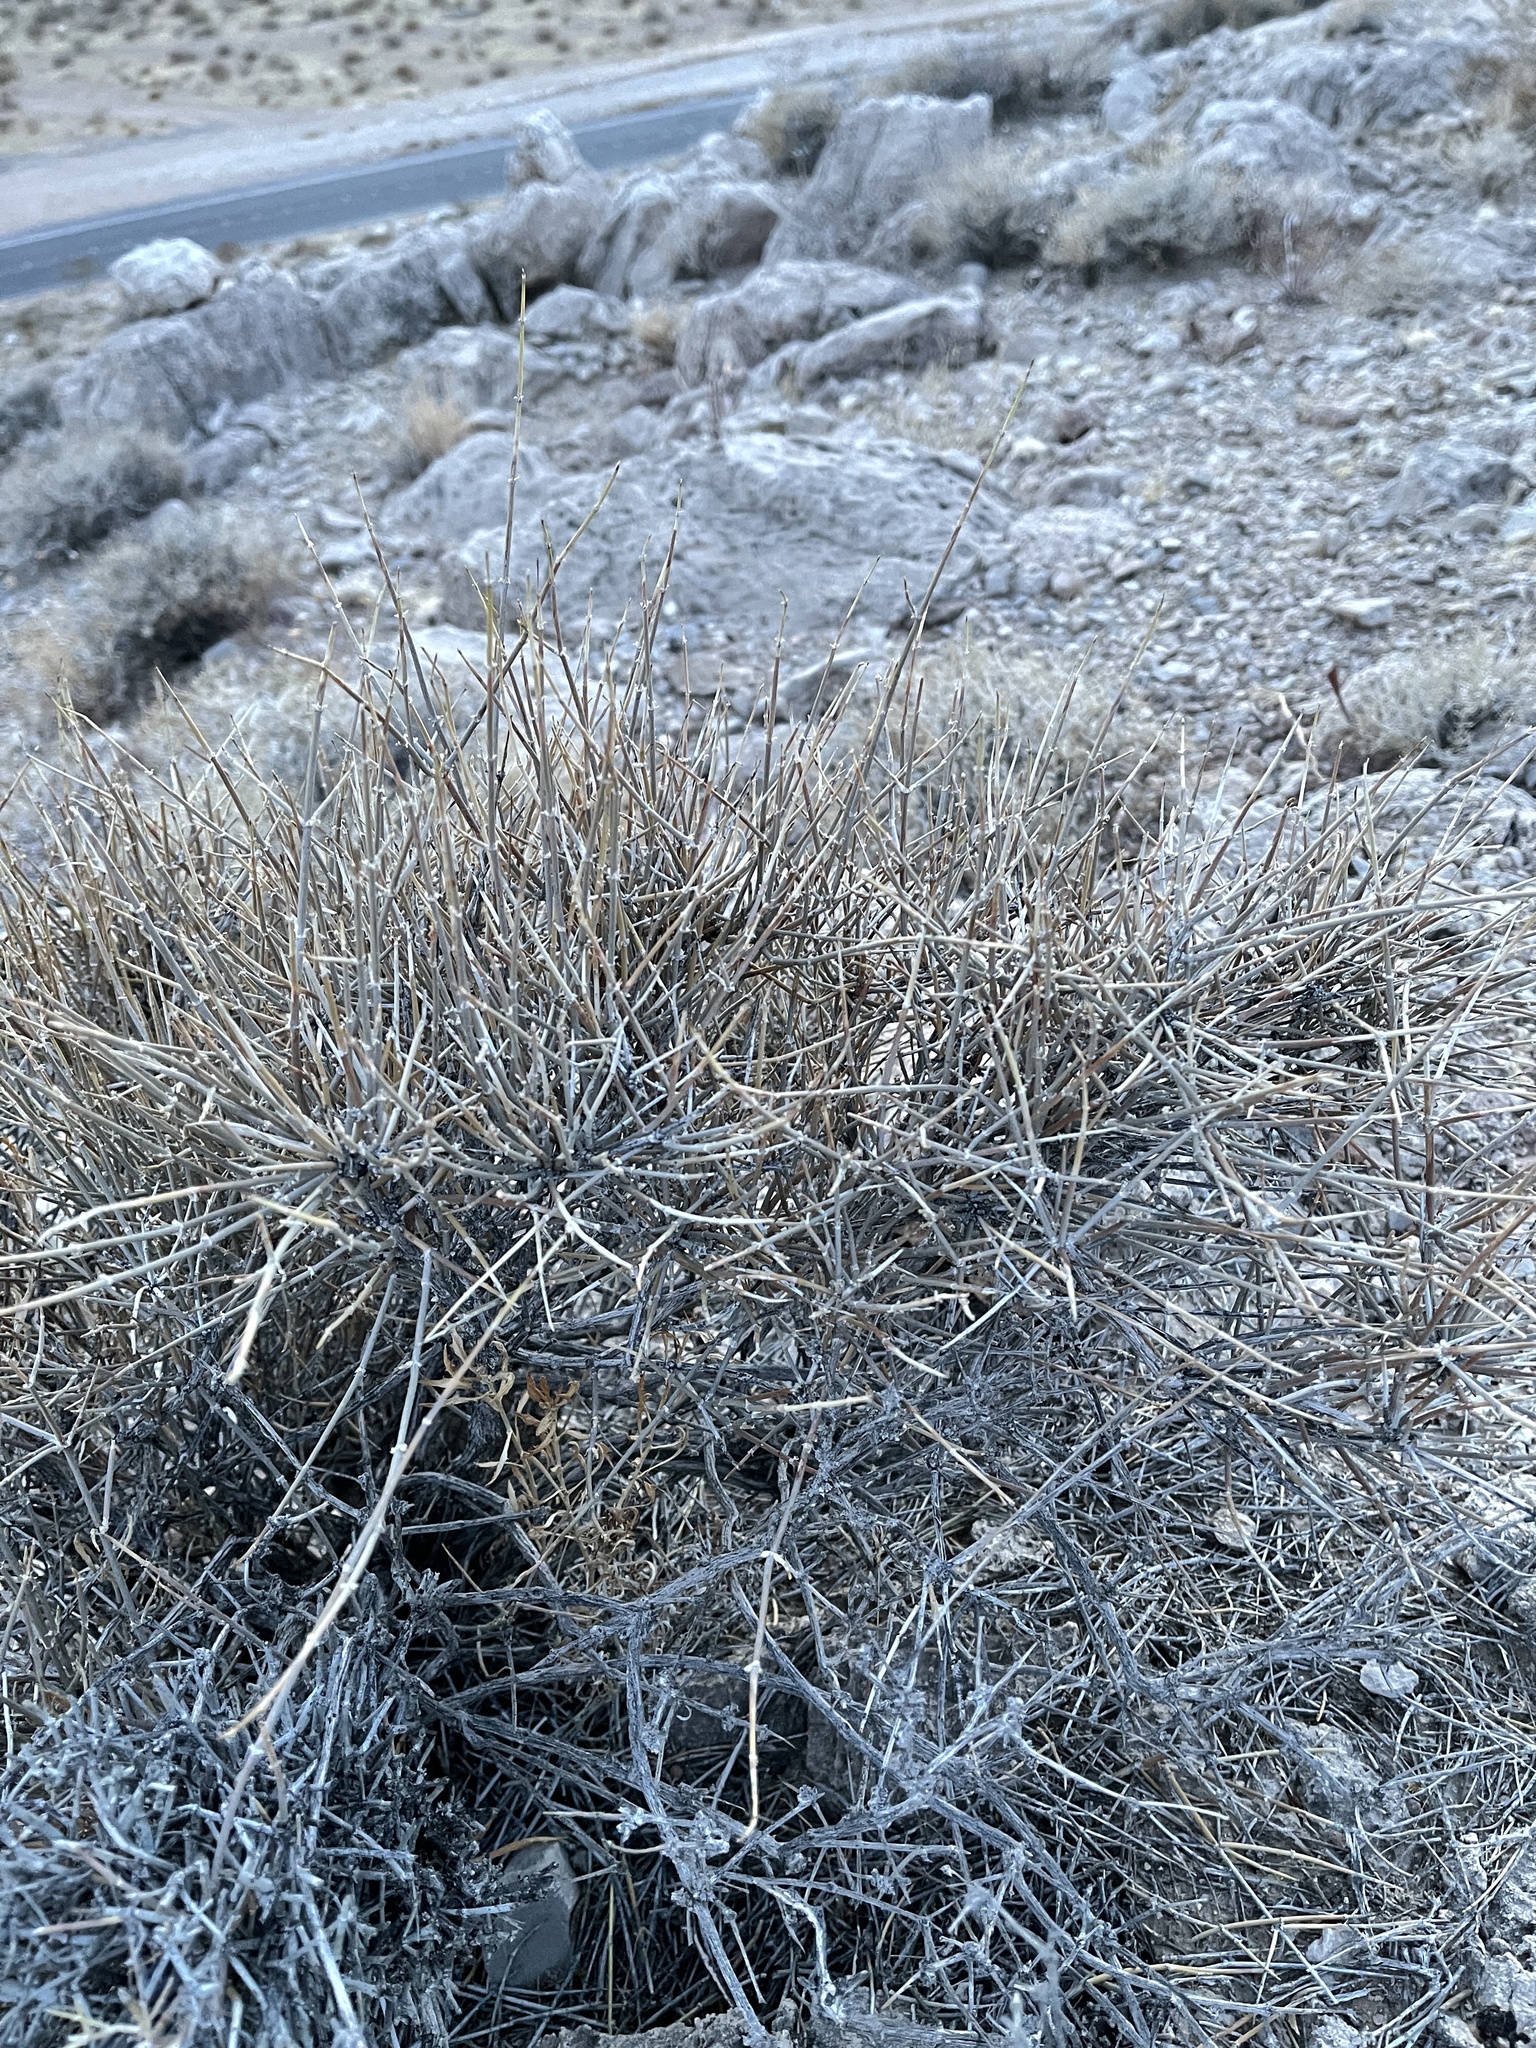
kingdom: Plantae
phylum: Tracheophyta
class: Gnetopsida
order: Ephedrales
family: Ephedraceae
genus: Ephedra
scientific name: Ephedra nevadensis
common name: Gray ephedra
